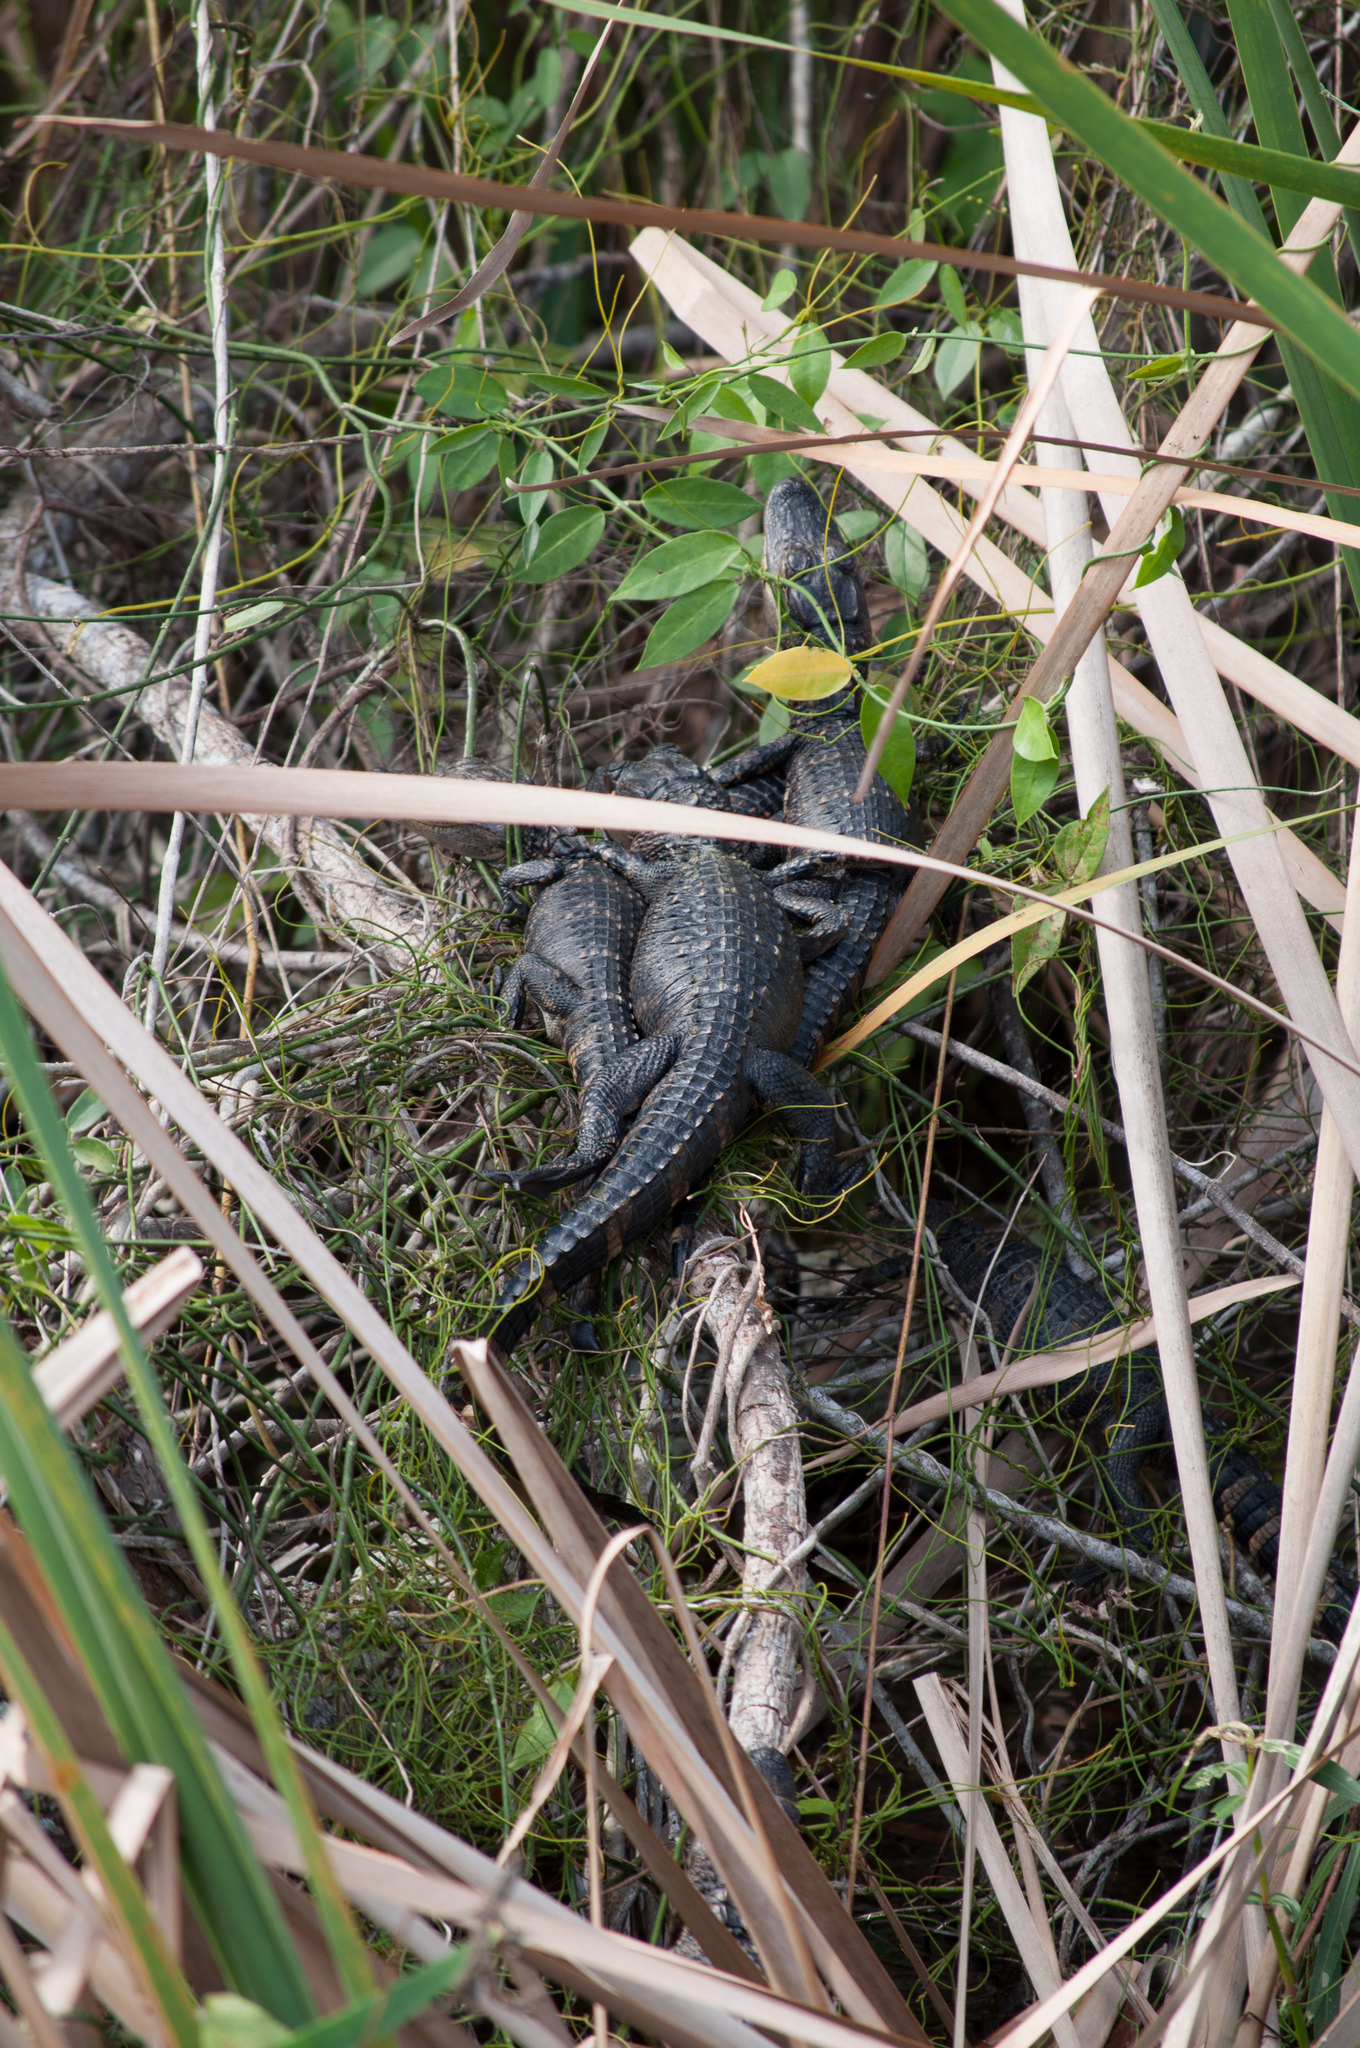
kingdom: Animalia
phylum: Chordata
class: Crocodylia
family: Alligatoridae
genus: Alligator
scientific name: Alligator mississippiensis
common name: American alligator
